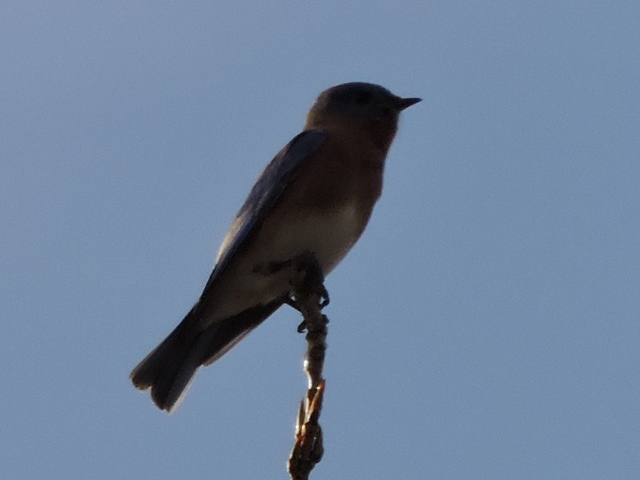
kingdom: Animalia
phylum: Chordata
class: Aves
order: Passeriformes
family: Turdidae
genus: Sialia
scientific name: Sialia sialis
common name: Eastern bluebird
